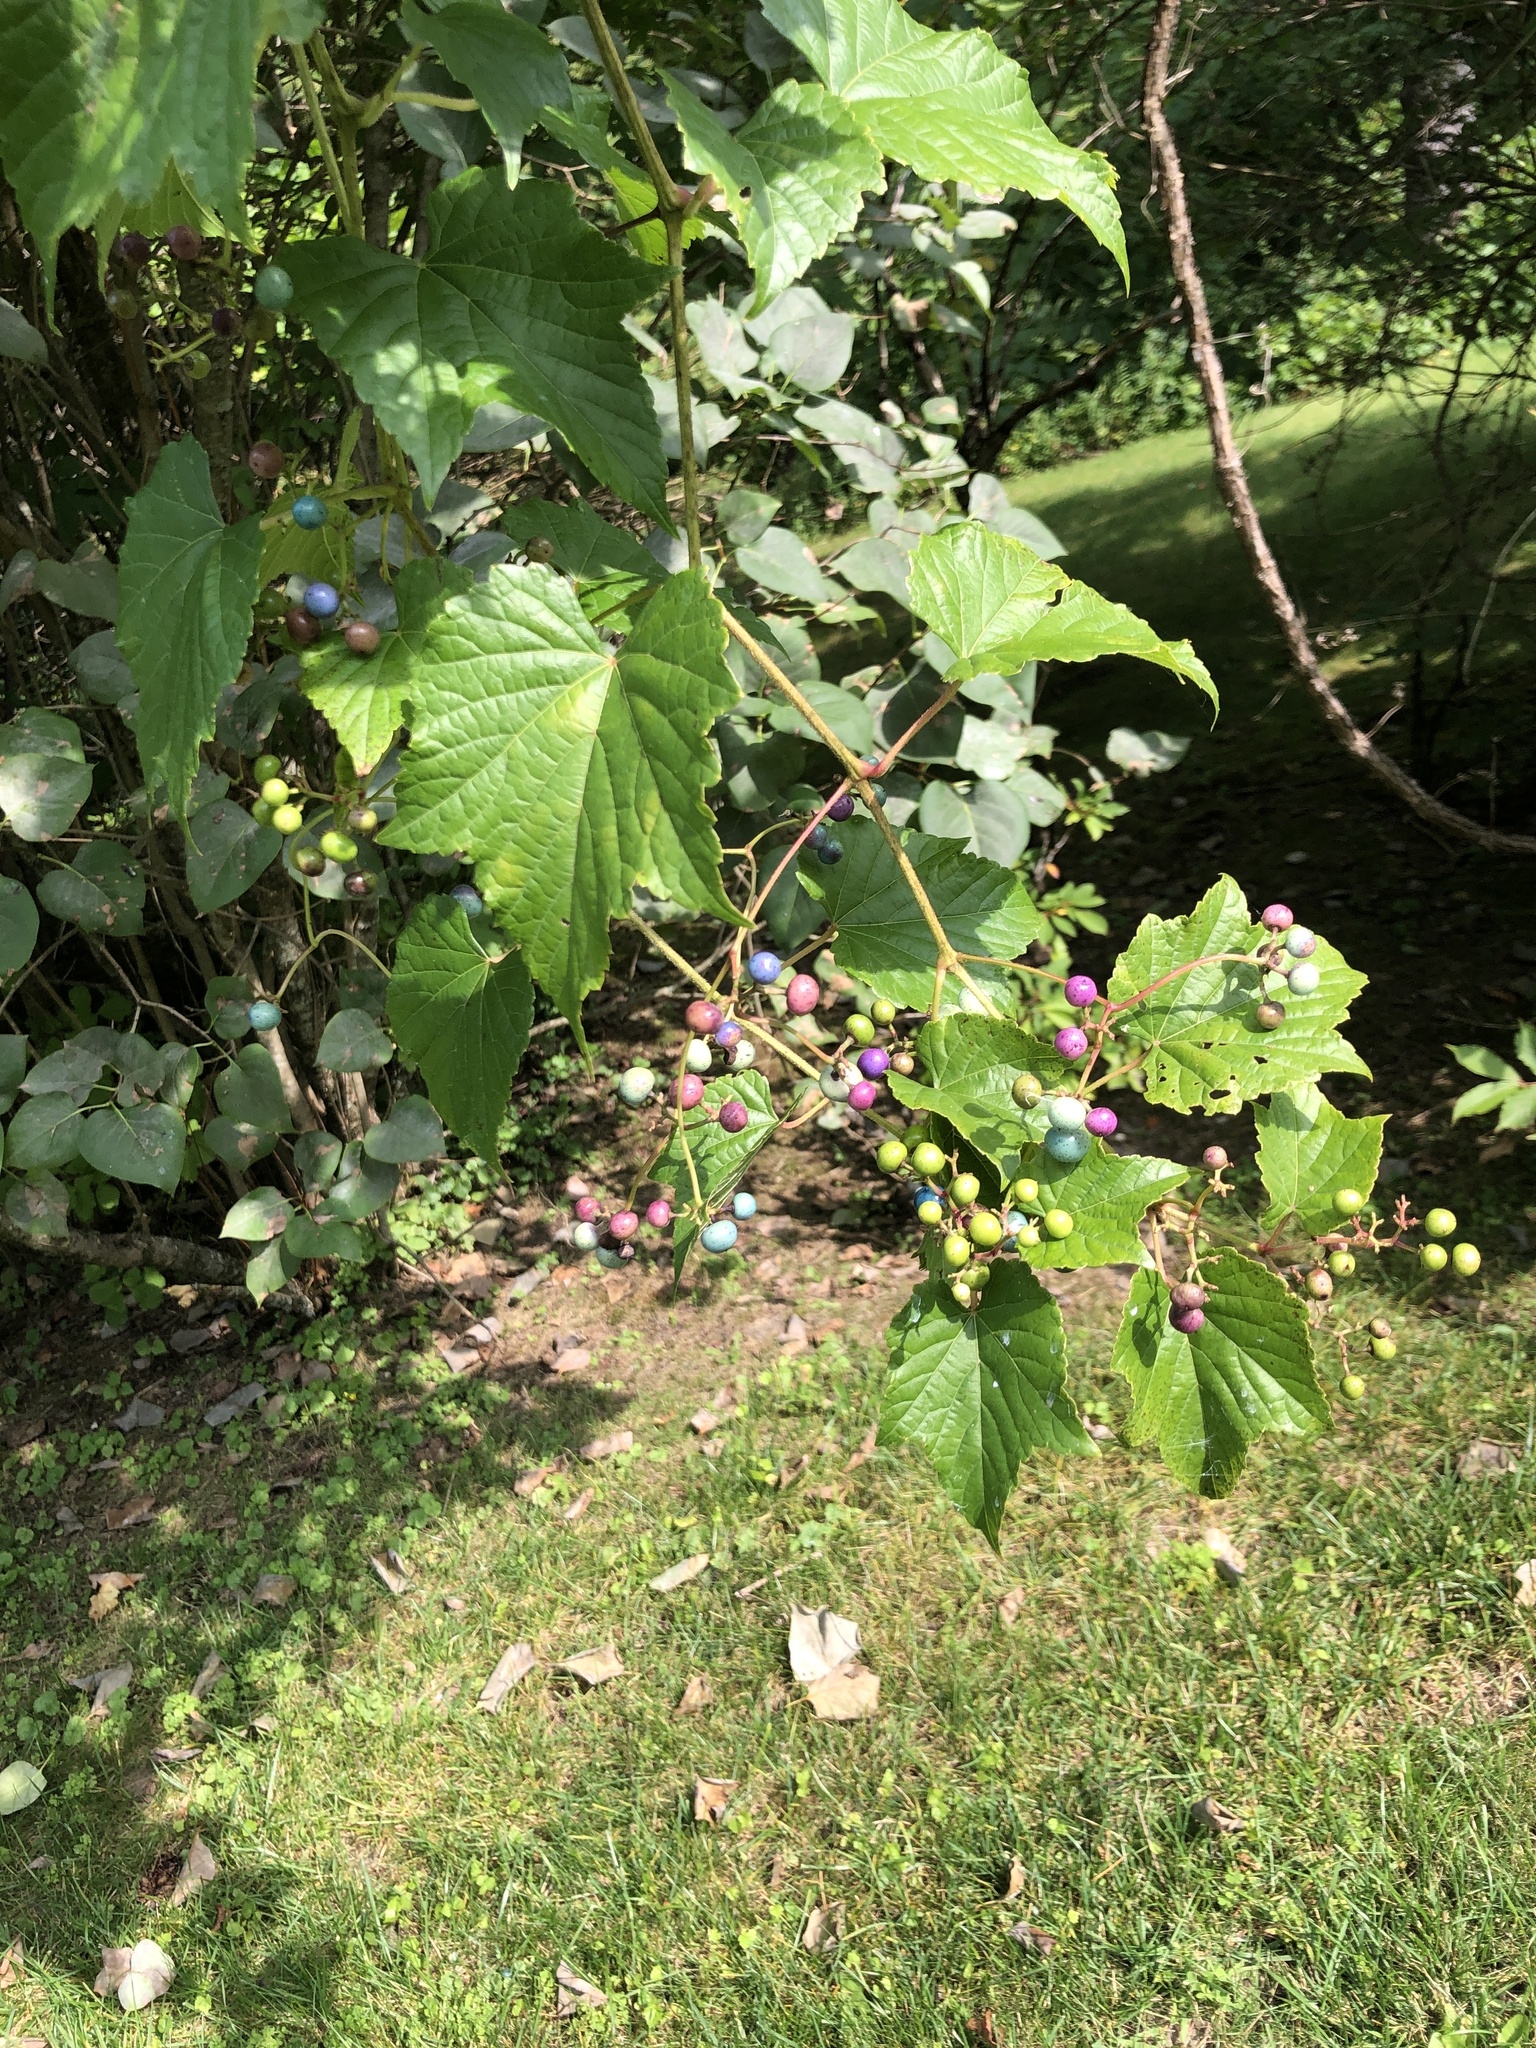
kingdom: Plantae
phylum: Tracheophyta
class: Magnoliopsida
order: Vitales
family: Vitaceae
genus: Ampelopsis
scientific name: Ampelopsis glandulosa
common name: Amur peppervine
